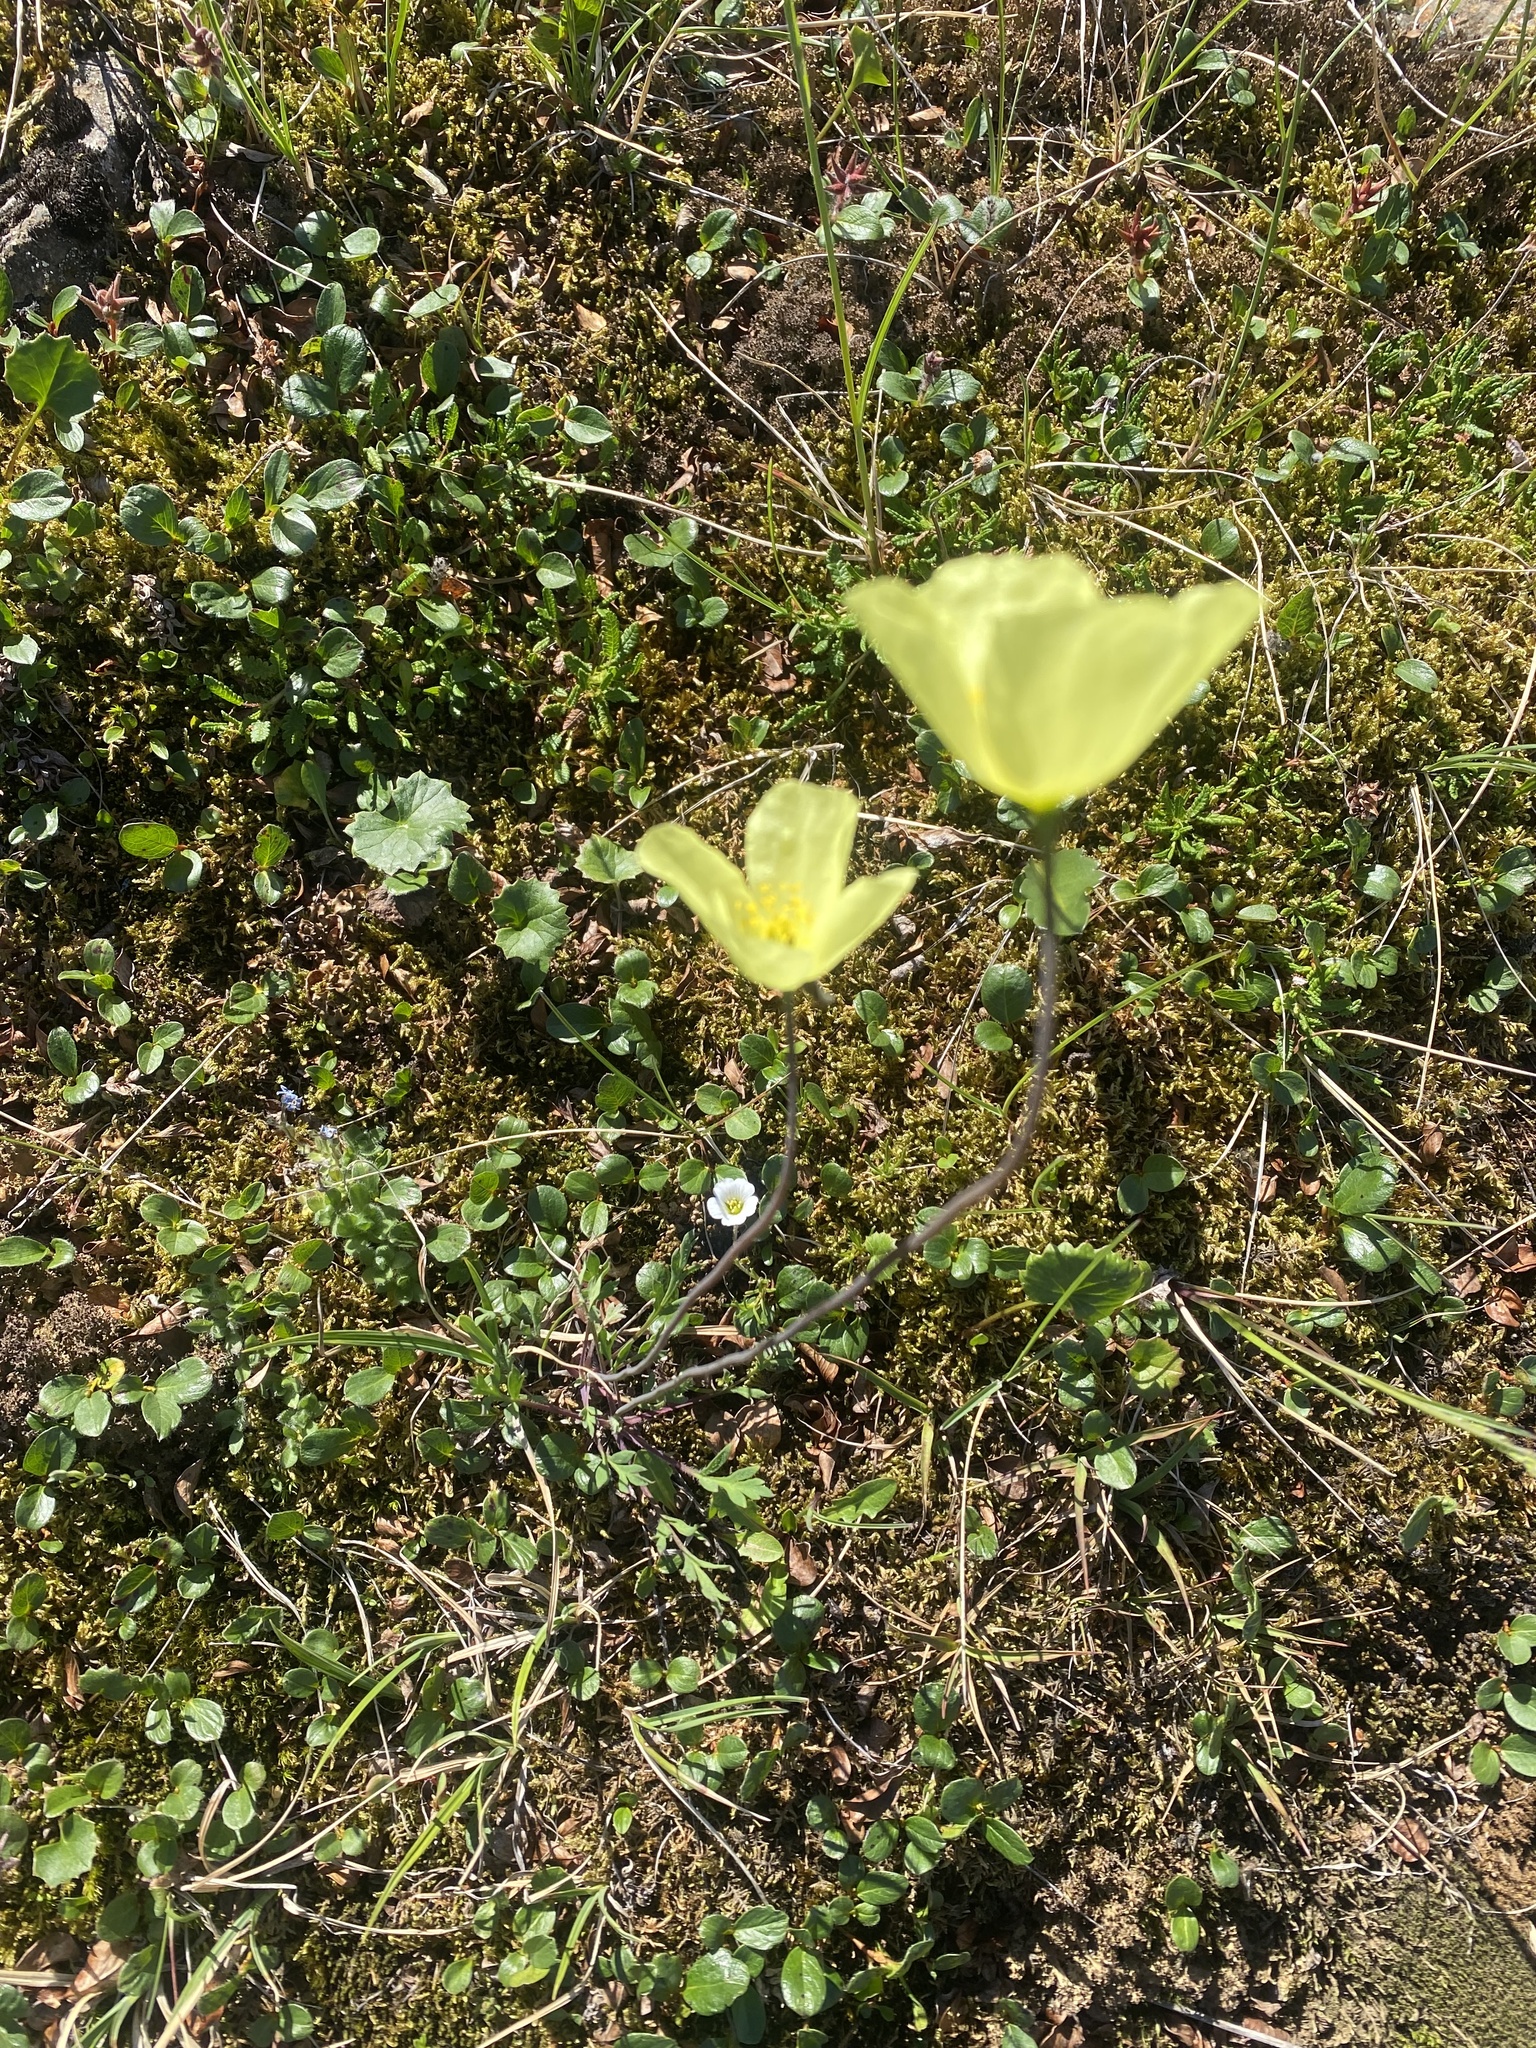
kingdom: Plantae
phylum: Tracheophyta
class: Magnoliopsida
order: Ranunculales
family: Papaveraceae
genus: Papaver
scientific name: Papaver lapponicum
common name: Lapland poppy
